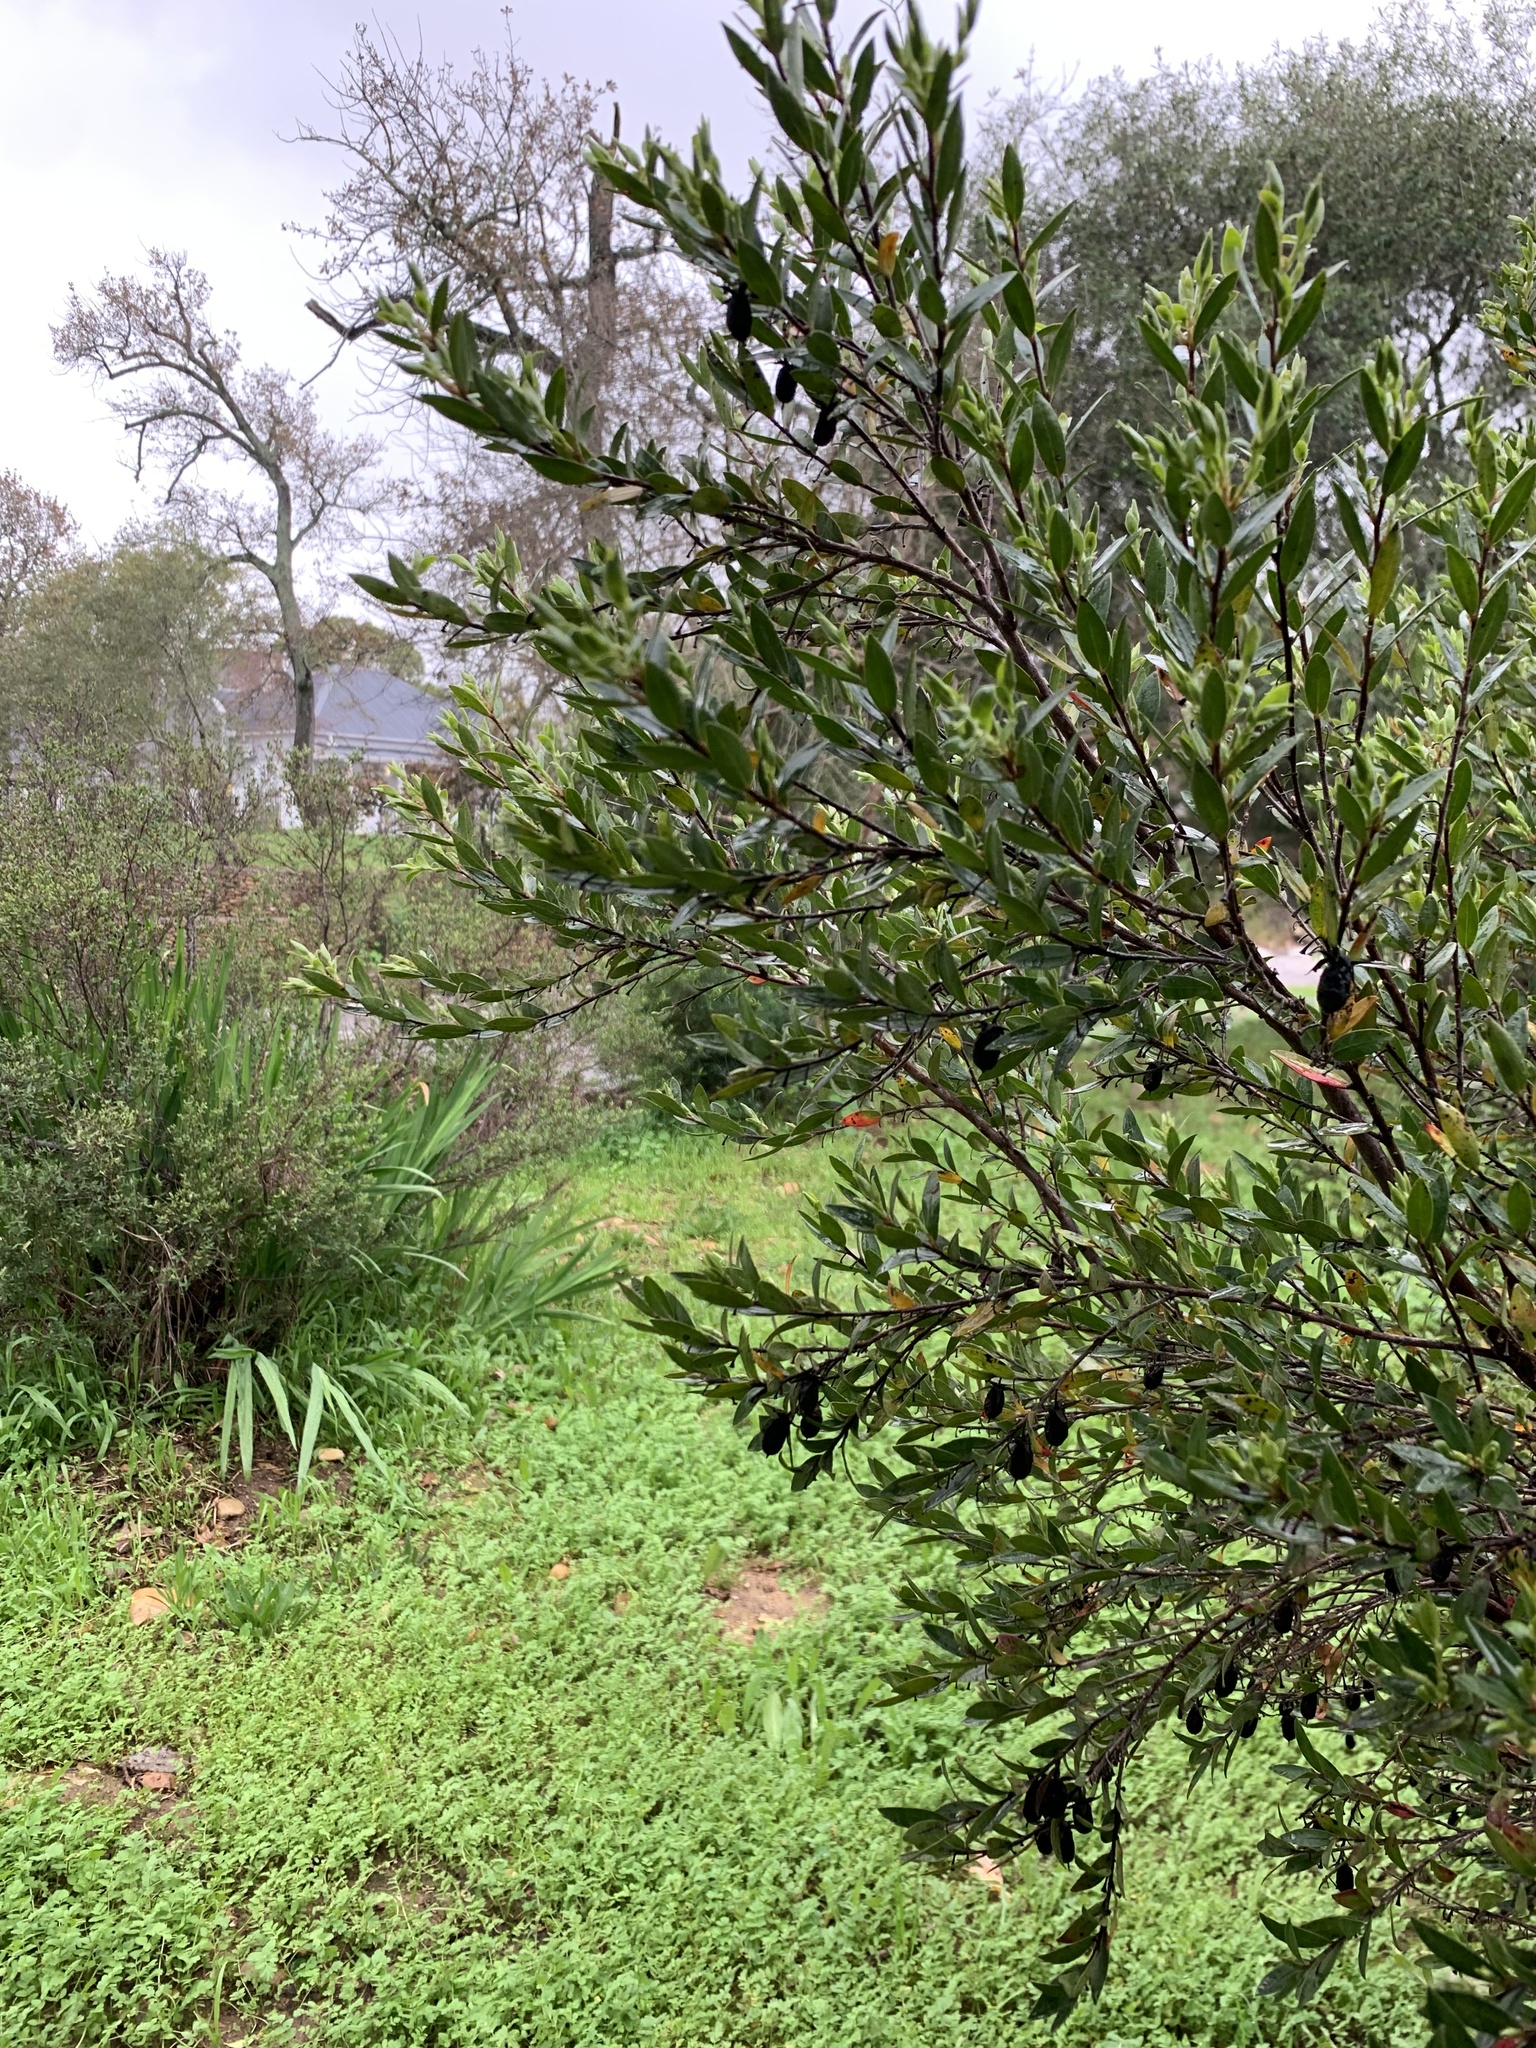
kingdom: Plantae
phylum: Tracheophyta
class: Magnoliopsida
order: Ericales
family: Ebenaceae
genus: Diospyros
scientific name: Diospyros glabra
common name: Fynbos star apple
